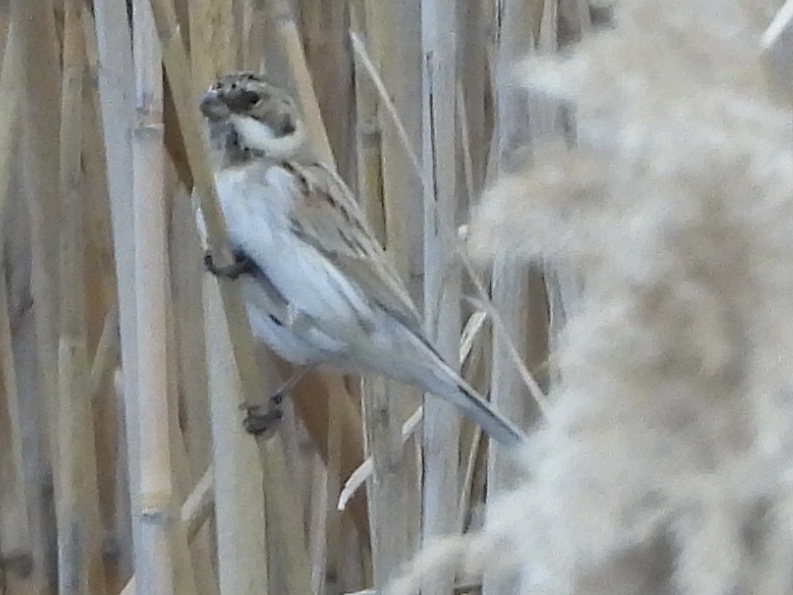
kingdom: Animalia
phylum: Chordata
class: Aves
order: Passeriformes
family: Emberizidae
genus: Emberiza
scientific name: Emberiza schoeniclus
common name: Reed bunting
